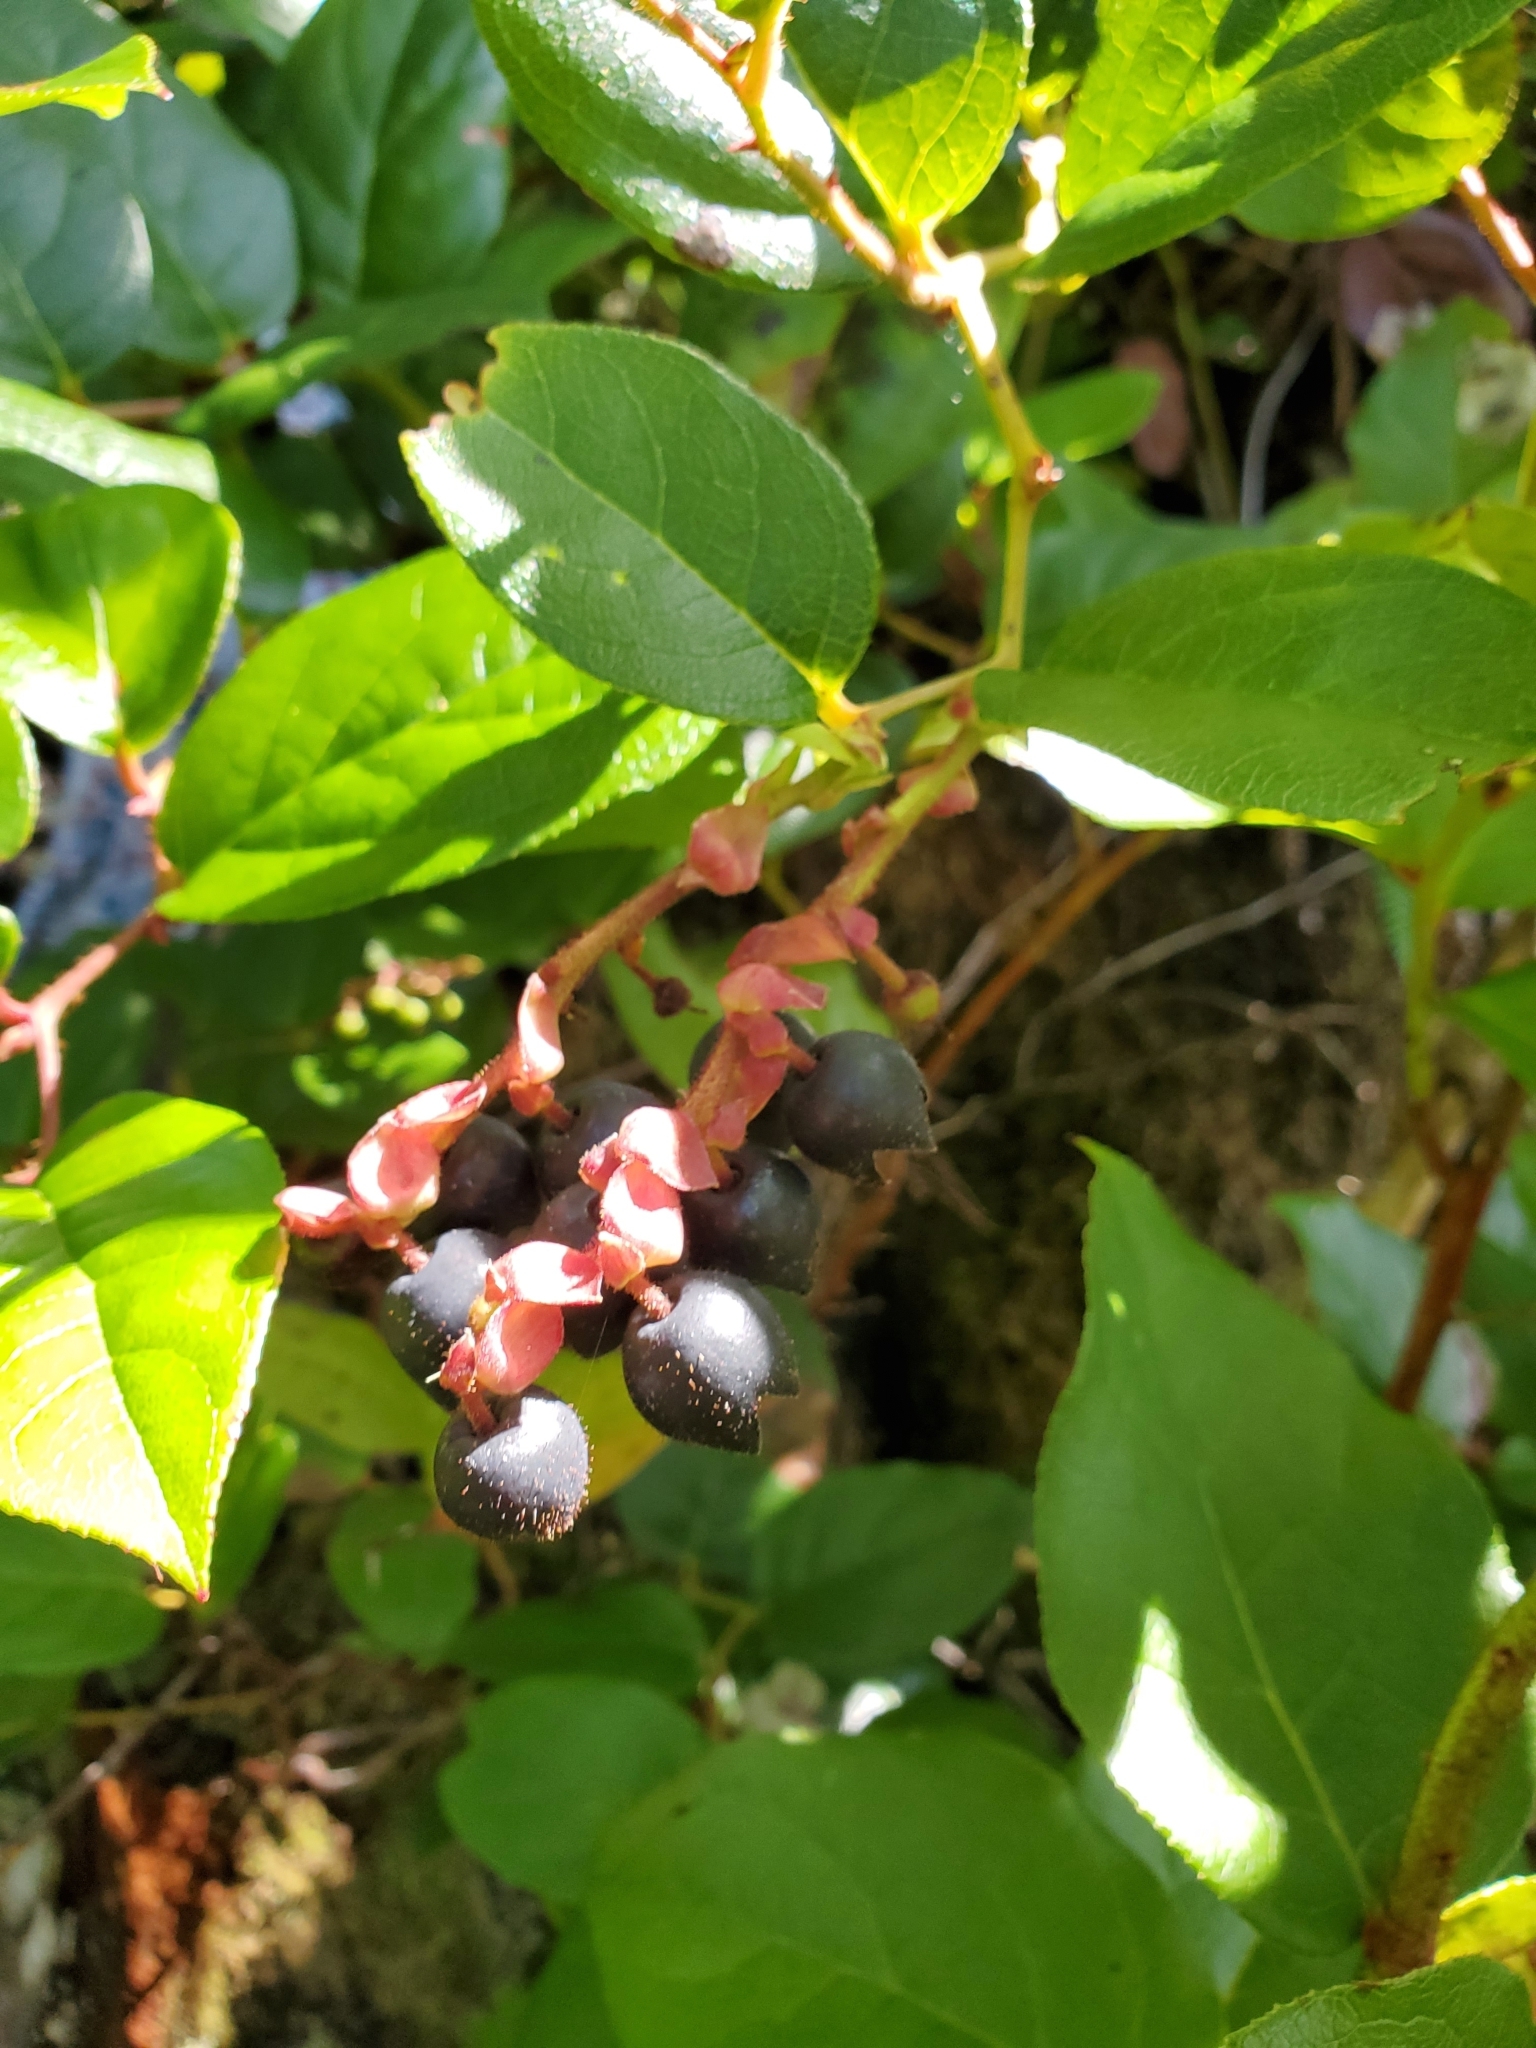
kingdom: Plantae
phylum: Tracheophyta
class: Magnoliopsida
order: Ericales
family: Ericaceae
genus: Gaultheria
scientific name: Gaultheria shallon
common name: Shallon
